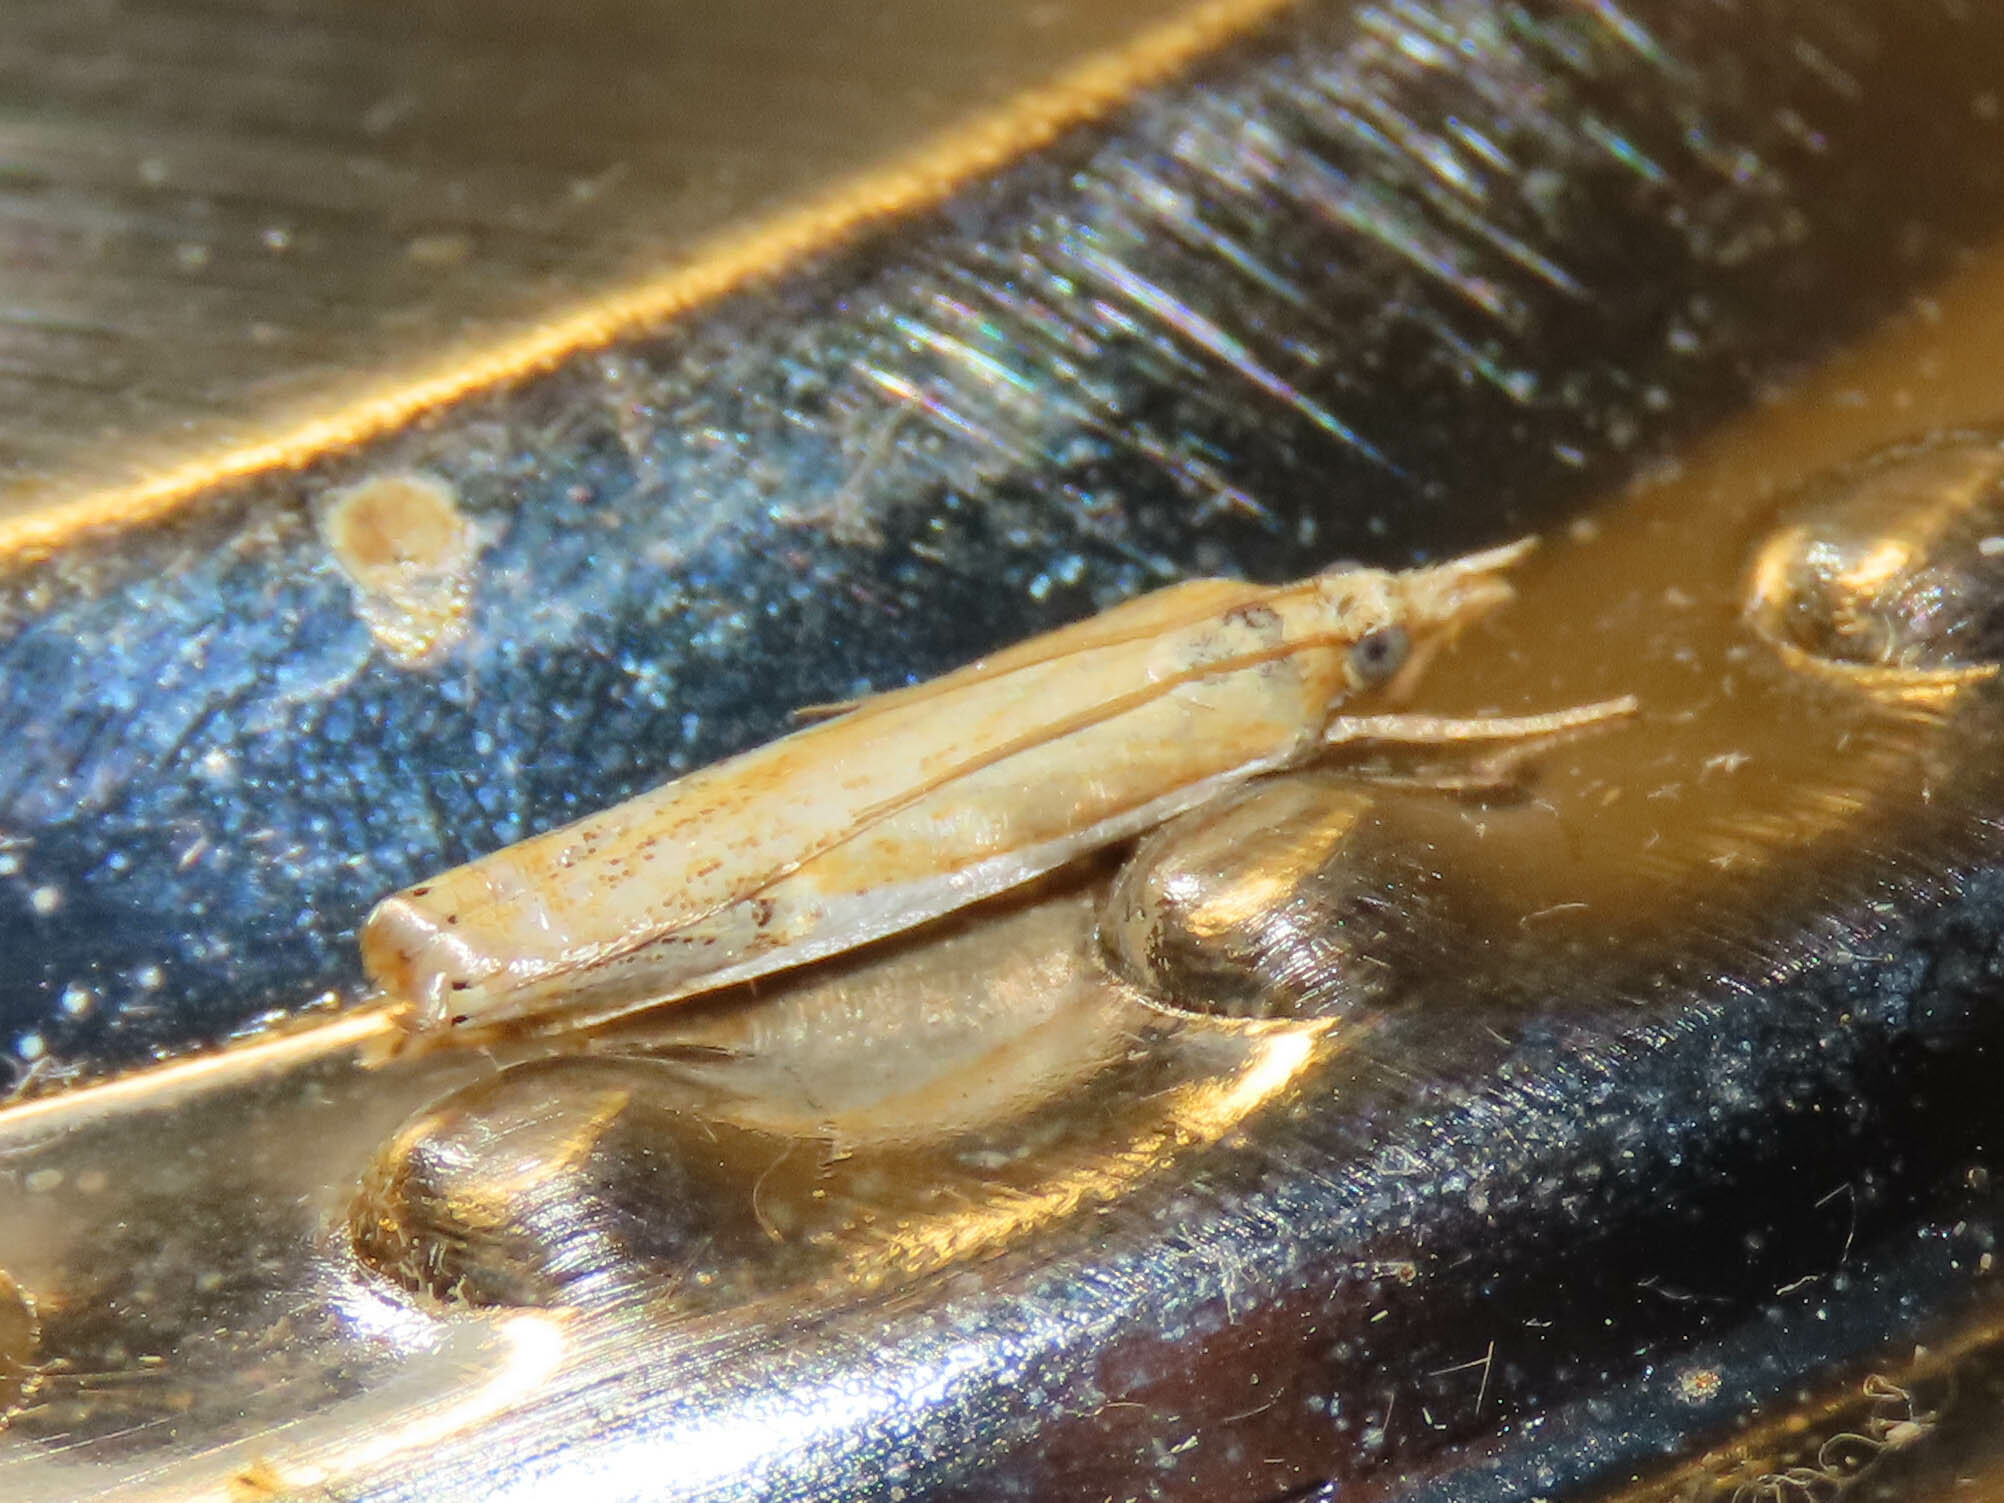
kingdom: Animalia
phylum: Arthropoda
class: Insecta
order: Lepidoptera
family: Crambidae
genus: Crambus
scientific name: Crambus agitatellus
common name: Double-banded grass-veneer
